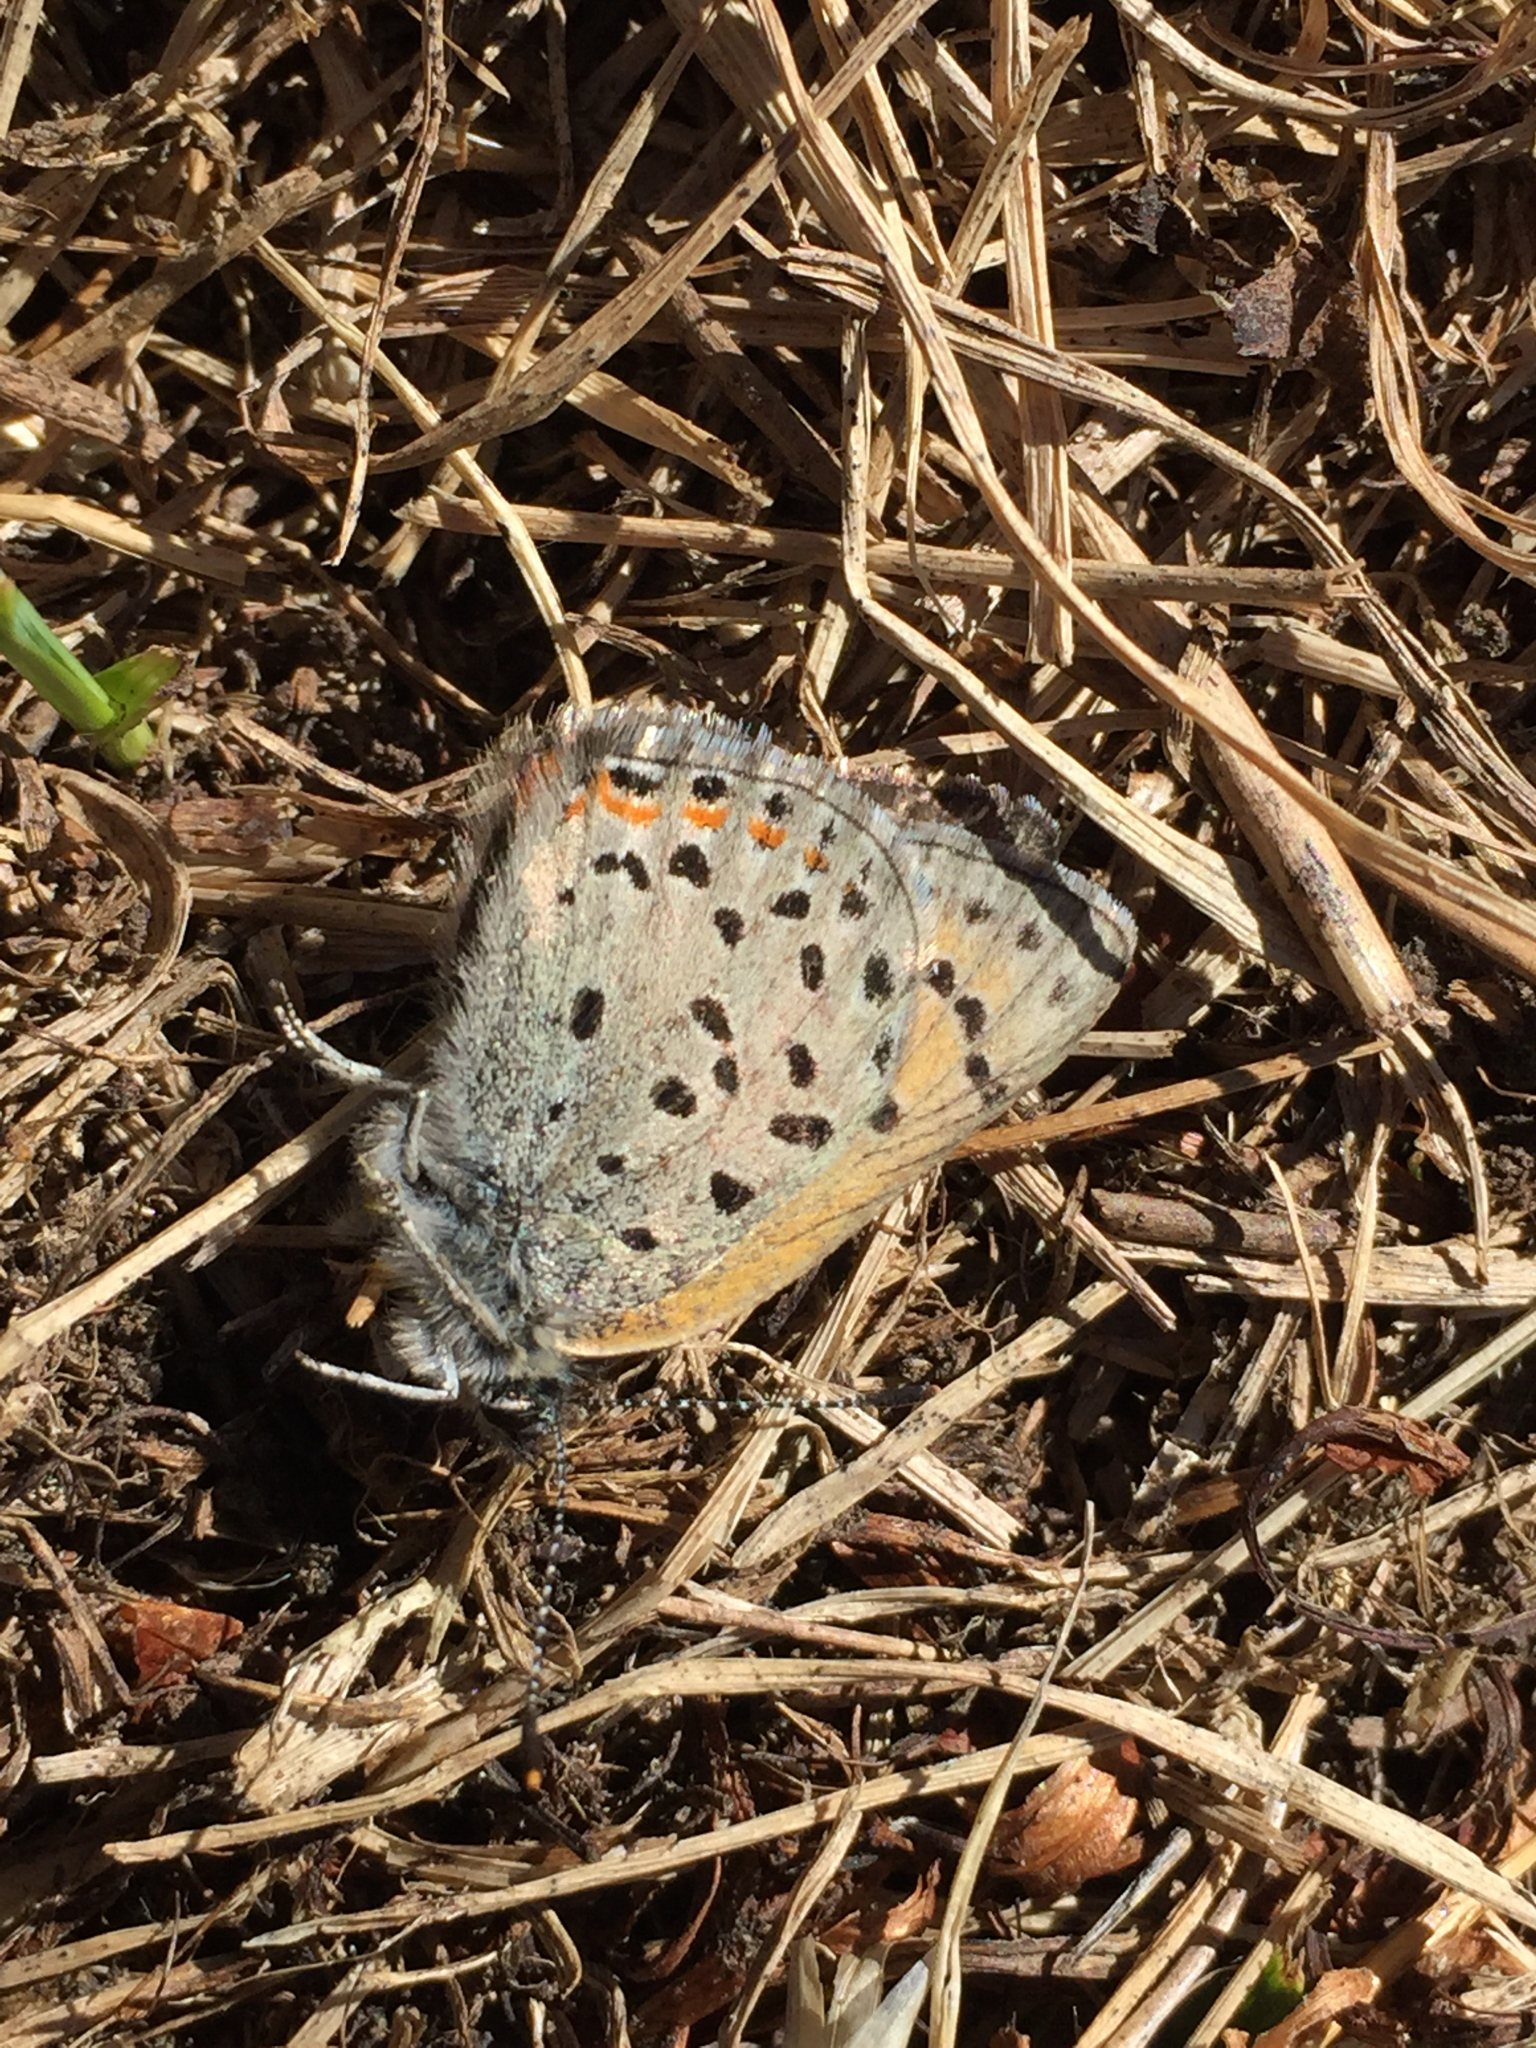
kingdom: Animalia
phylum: Arthropoda
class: Insecta
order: Lepidoptera
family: Lycaenidae
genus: Lycaena
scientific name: Lycaena snowi
